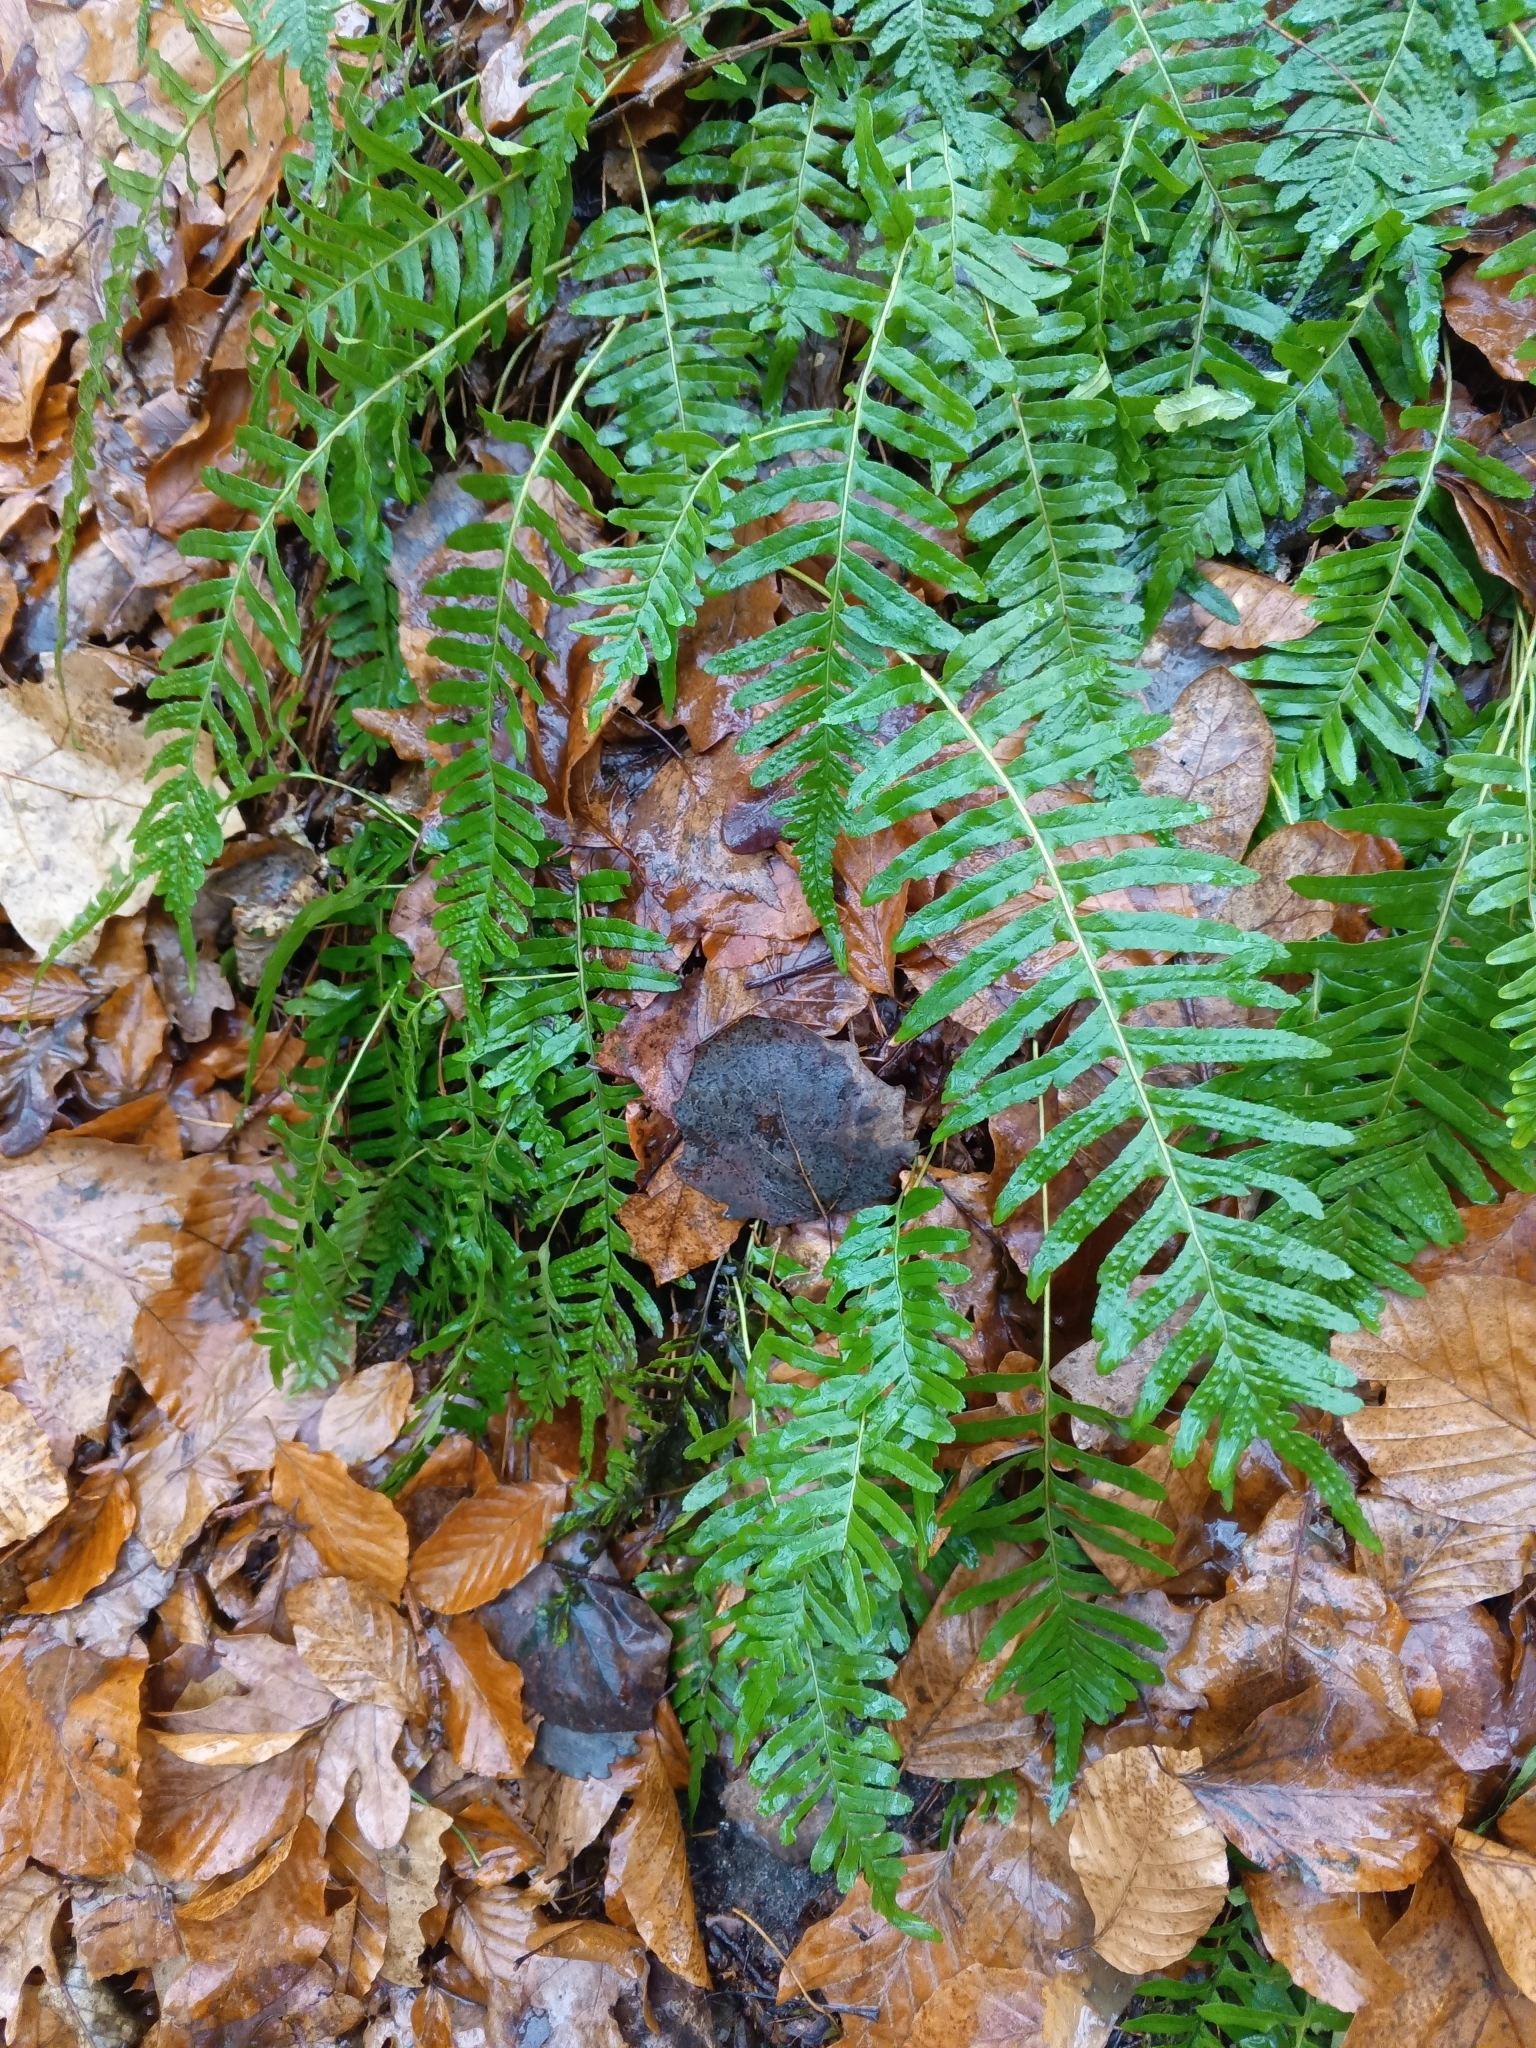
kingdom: Plantae
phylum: Tracheophyta
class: Polypodiopsida
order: Polypodiales
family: Polypodiaceae
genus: Polypodium
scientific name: Polypodium vulgare
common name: Common polypody
